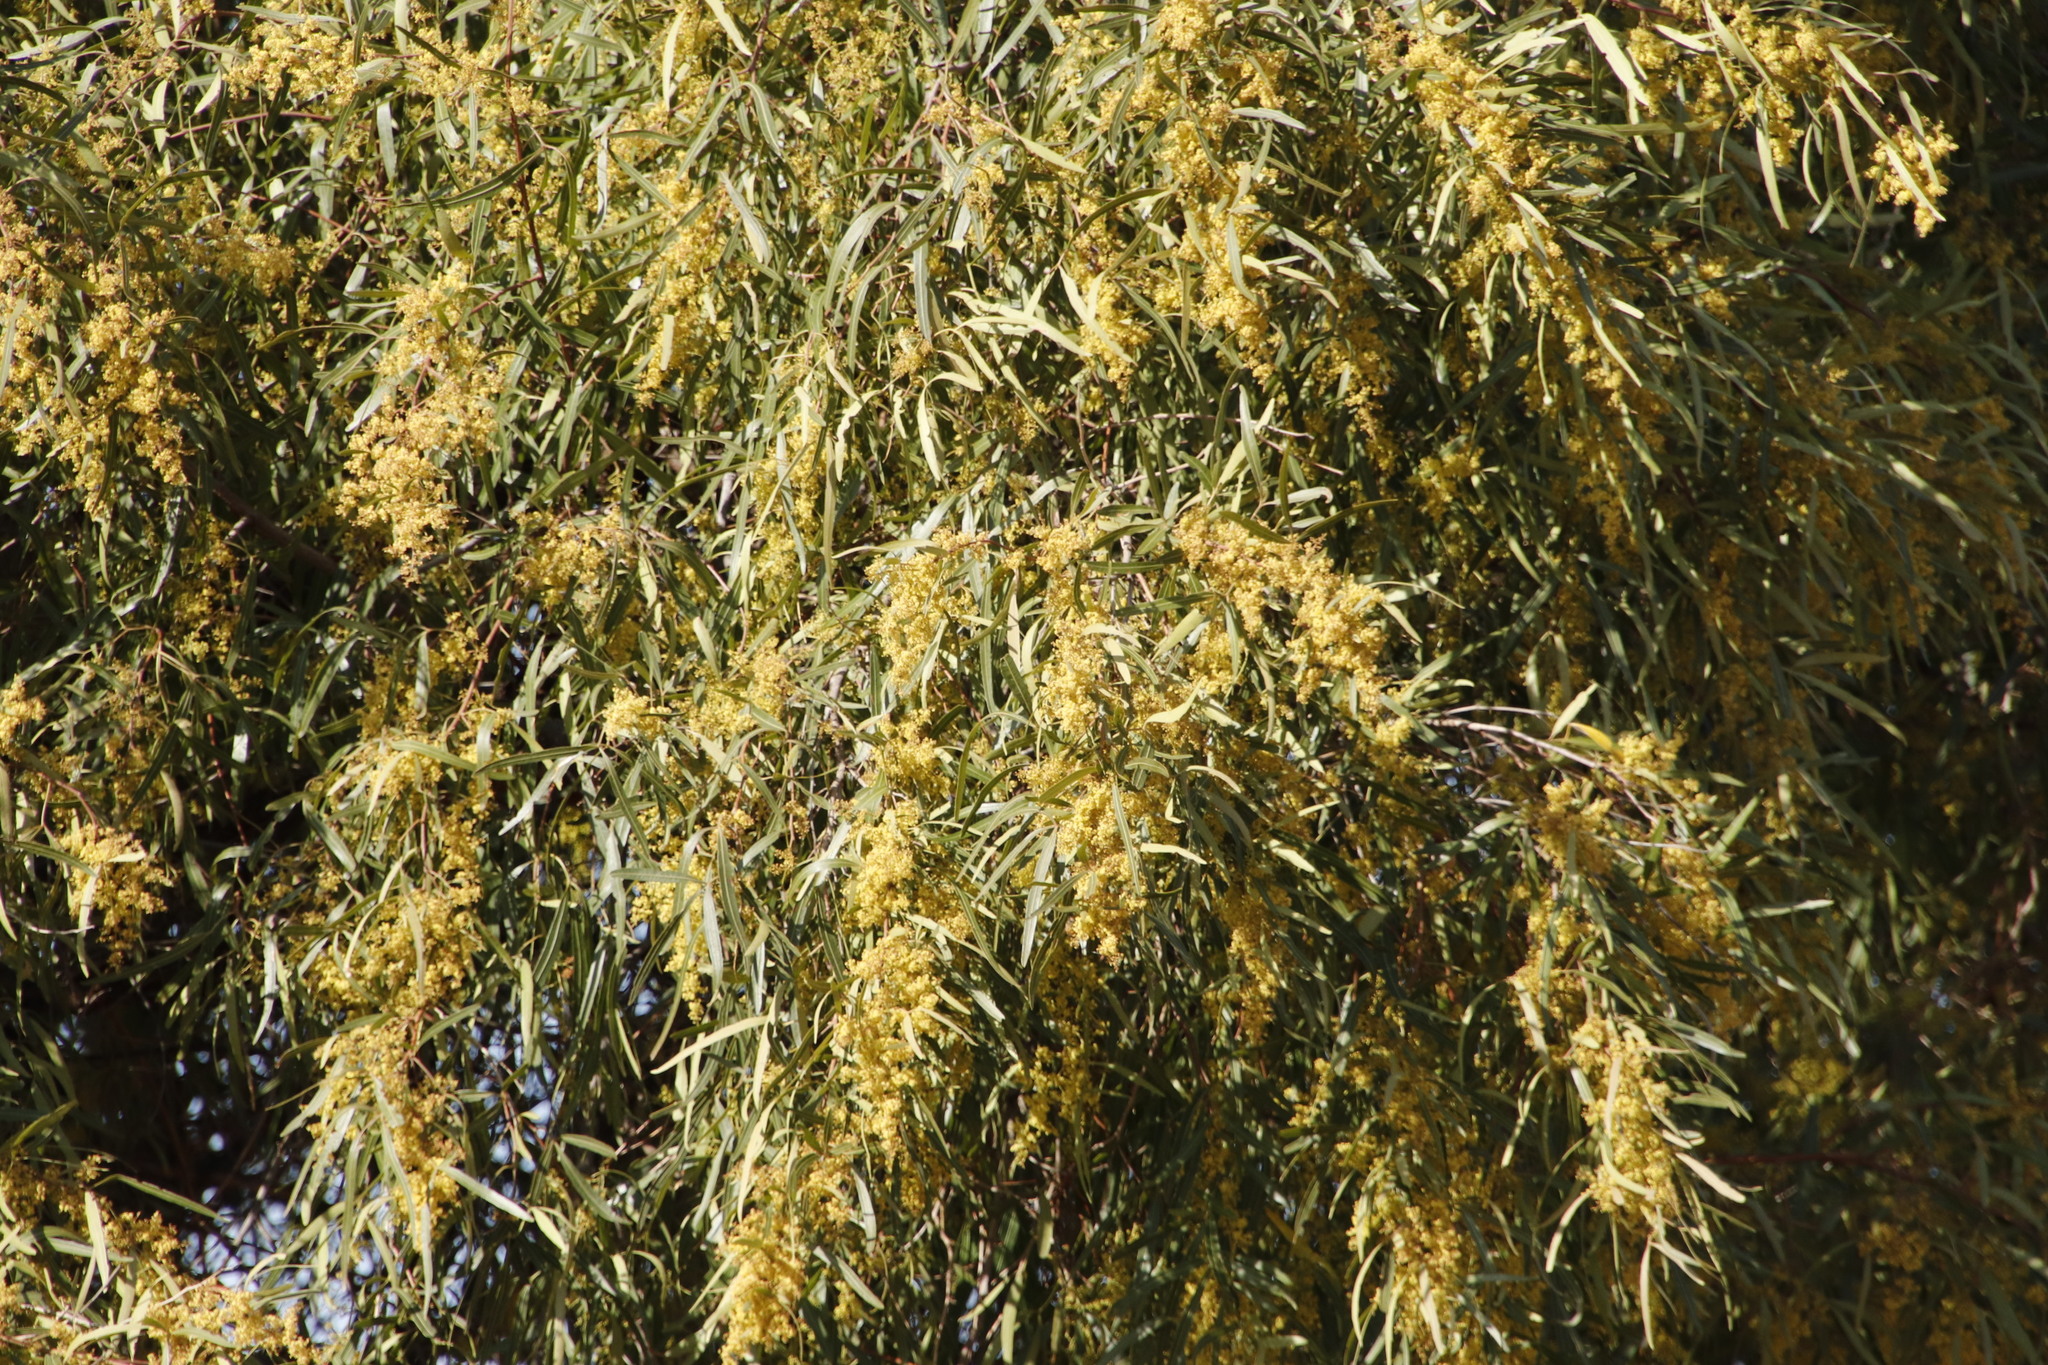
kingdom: Plantae
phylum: Tracheophyta
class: Magnoliopsida
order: Sapindales
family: Anacardiaceae
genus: Searsia
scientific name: Searsia lancea
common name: Cashew
